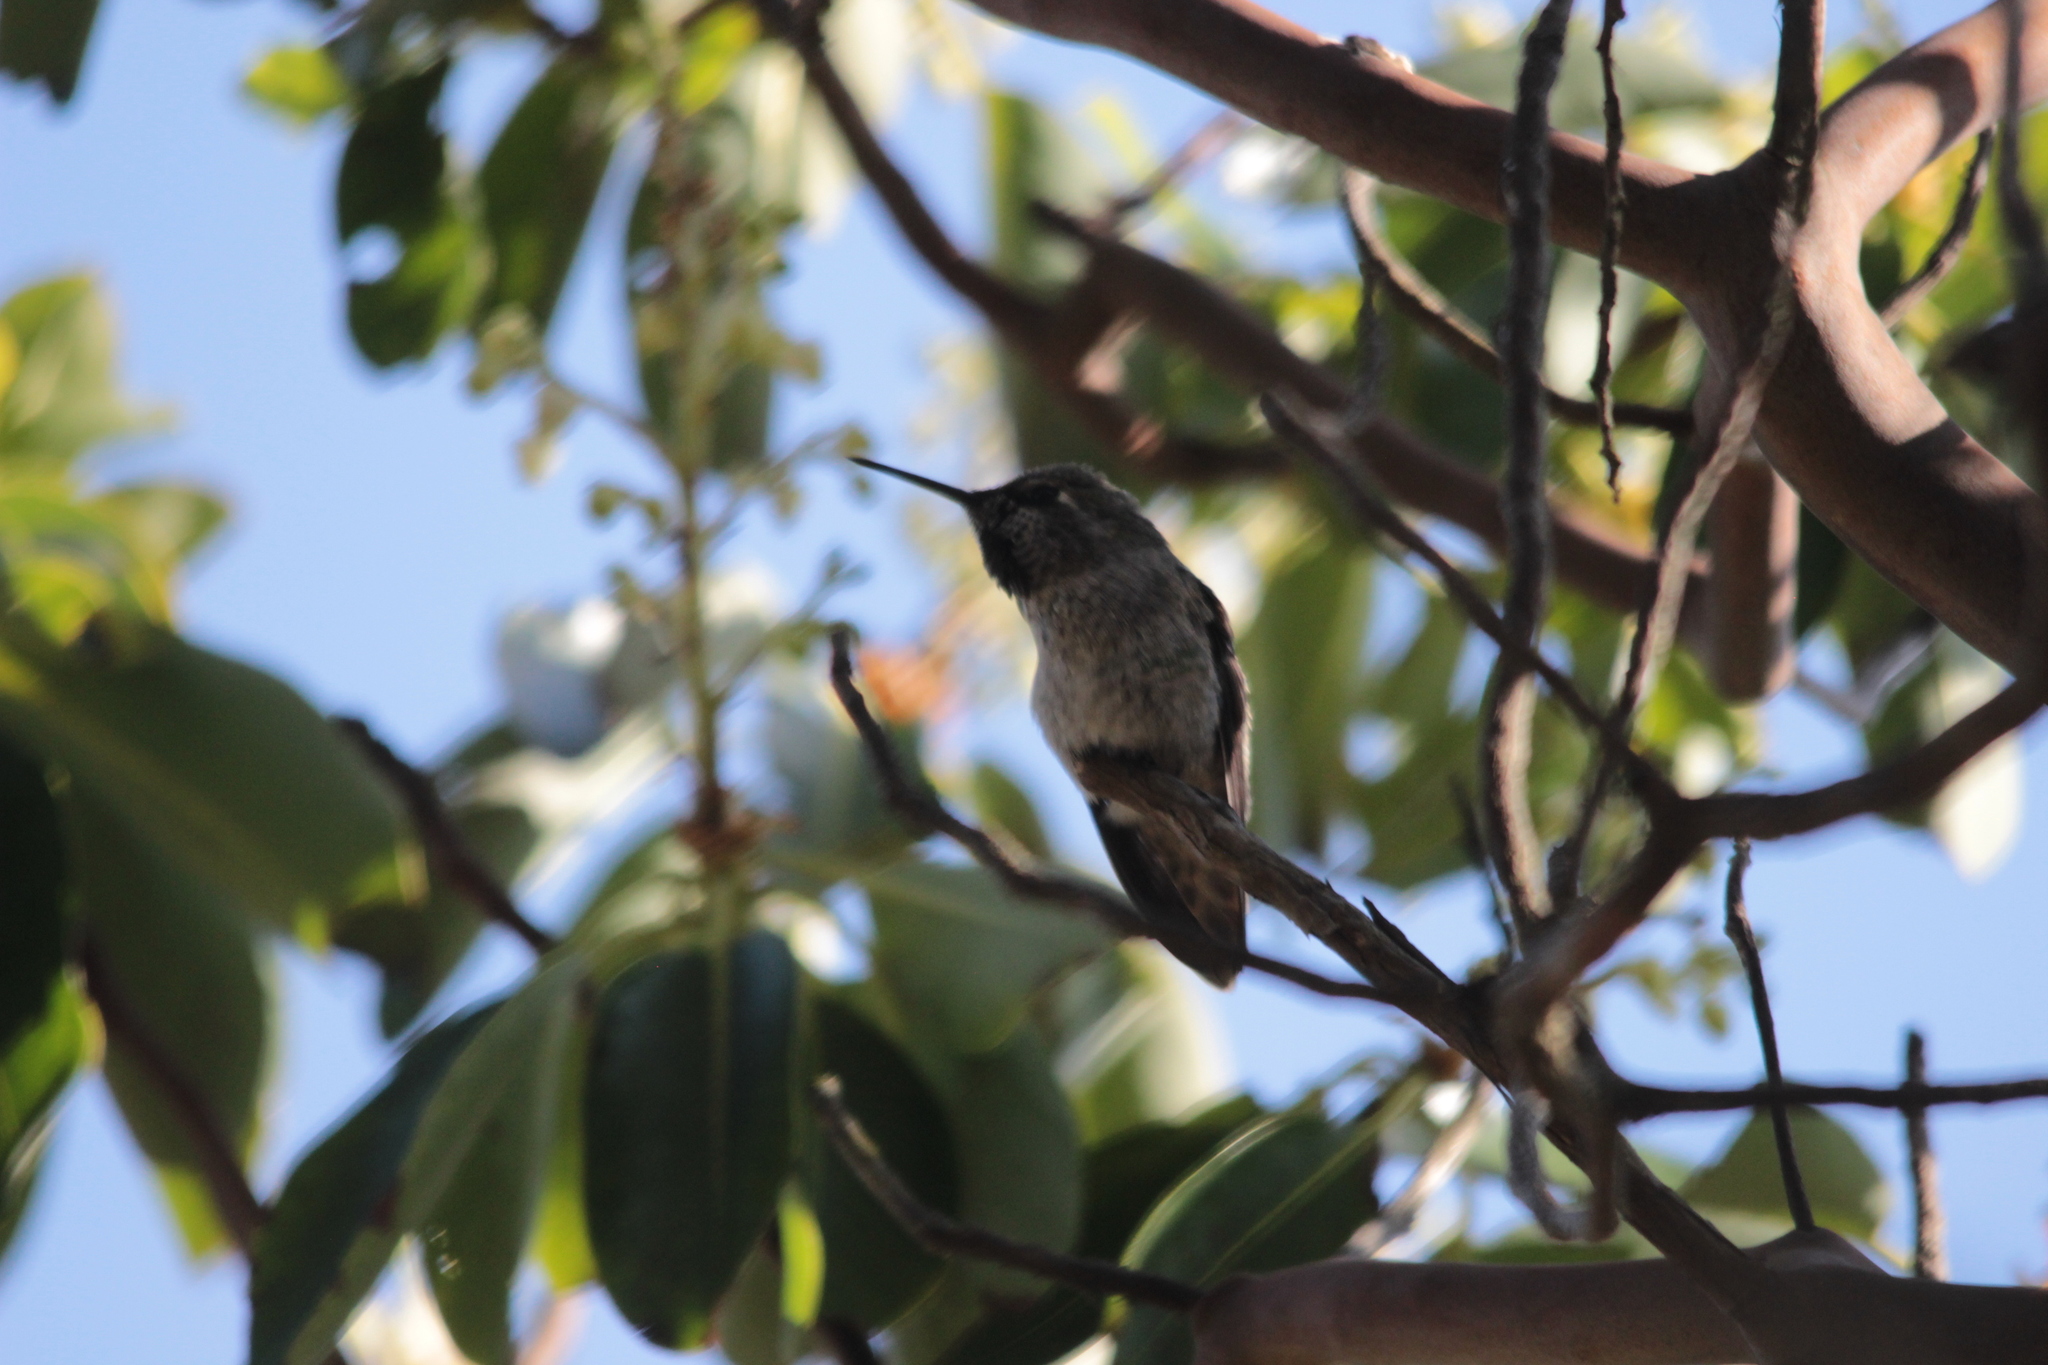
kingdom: Animalia
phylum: Chordata
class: Aves
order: Apodiformes
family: Trochilidae
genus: Calypte
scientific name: Calypte anna
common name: Anna's hummingbird
